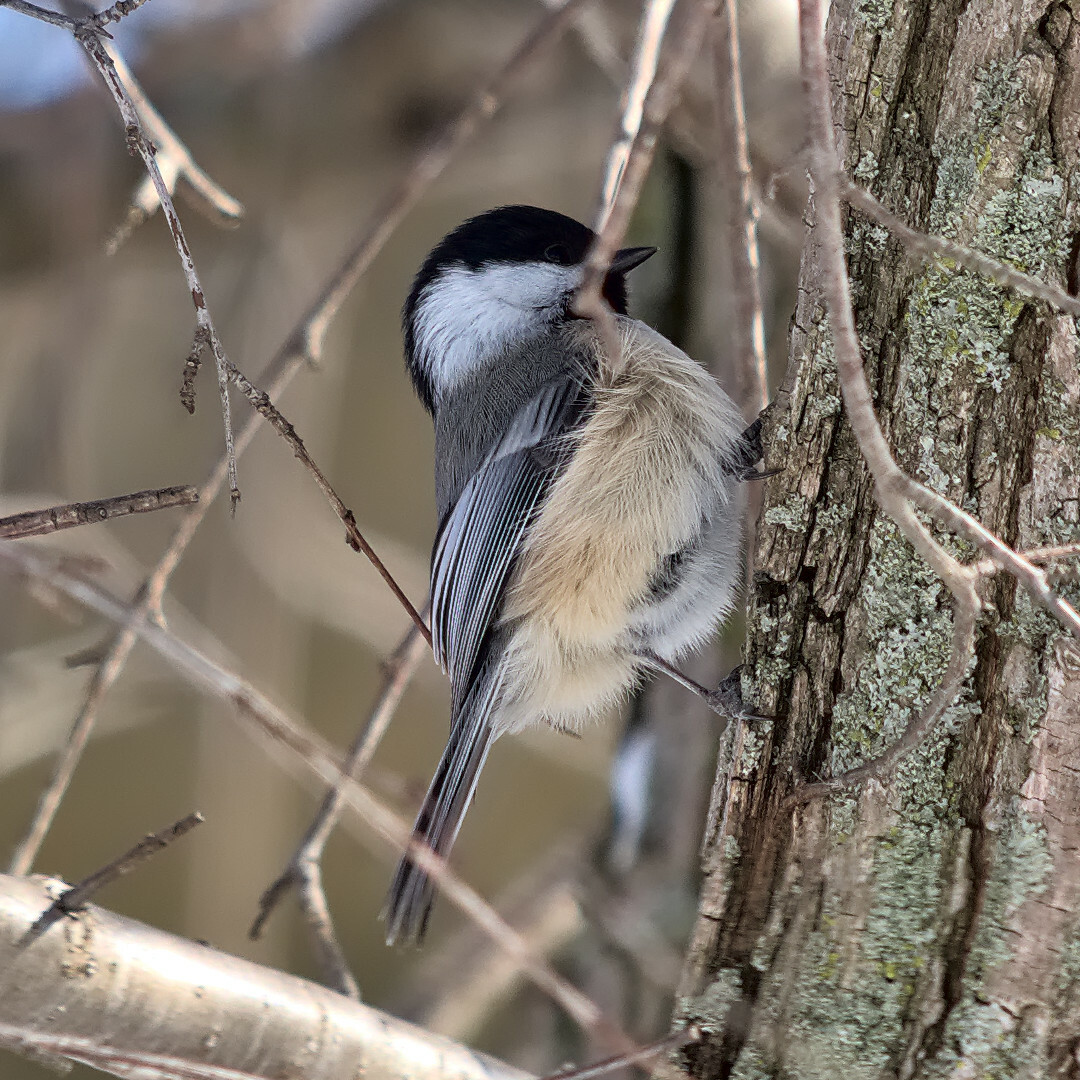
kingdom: Animalia
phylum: Chordata
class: Aves
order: Passeriformes
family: Paridae
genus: Poecile
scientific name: Poecile atricapillus
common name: Black-capped chickadee
